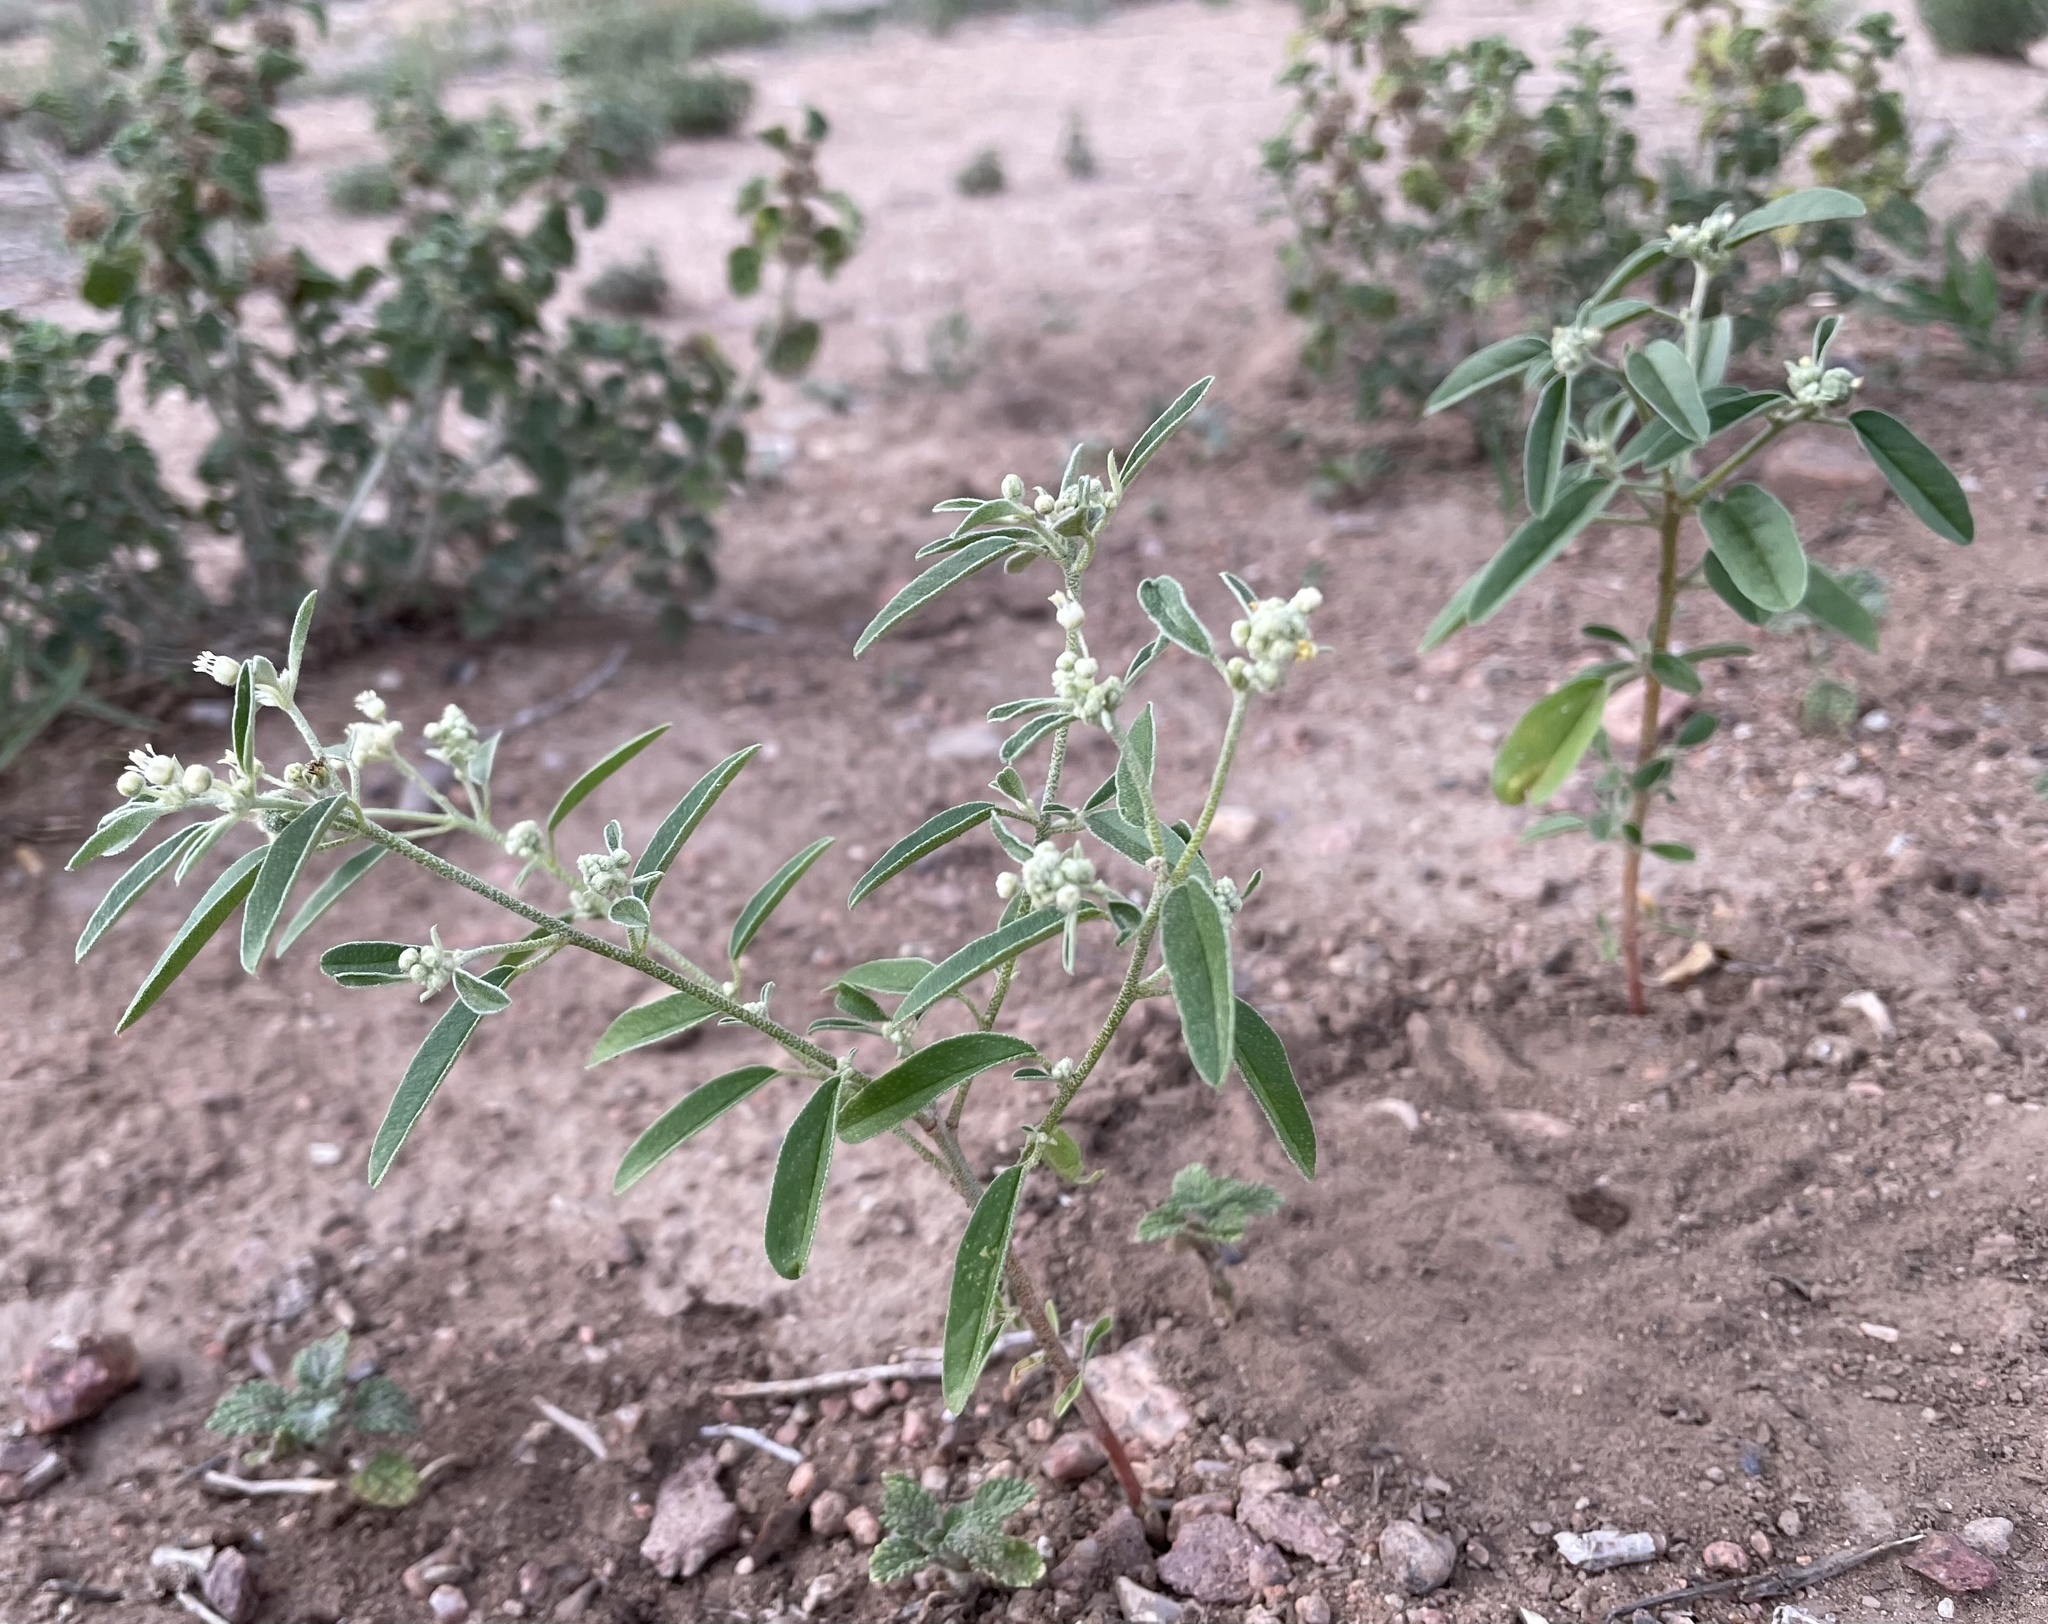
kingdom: Plantae
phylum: Tracheophyta
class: Magnoliopsida
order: Malpighiales
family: Euphorbiaceae
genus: Croton
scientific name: Croton texensis
